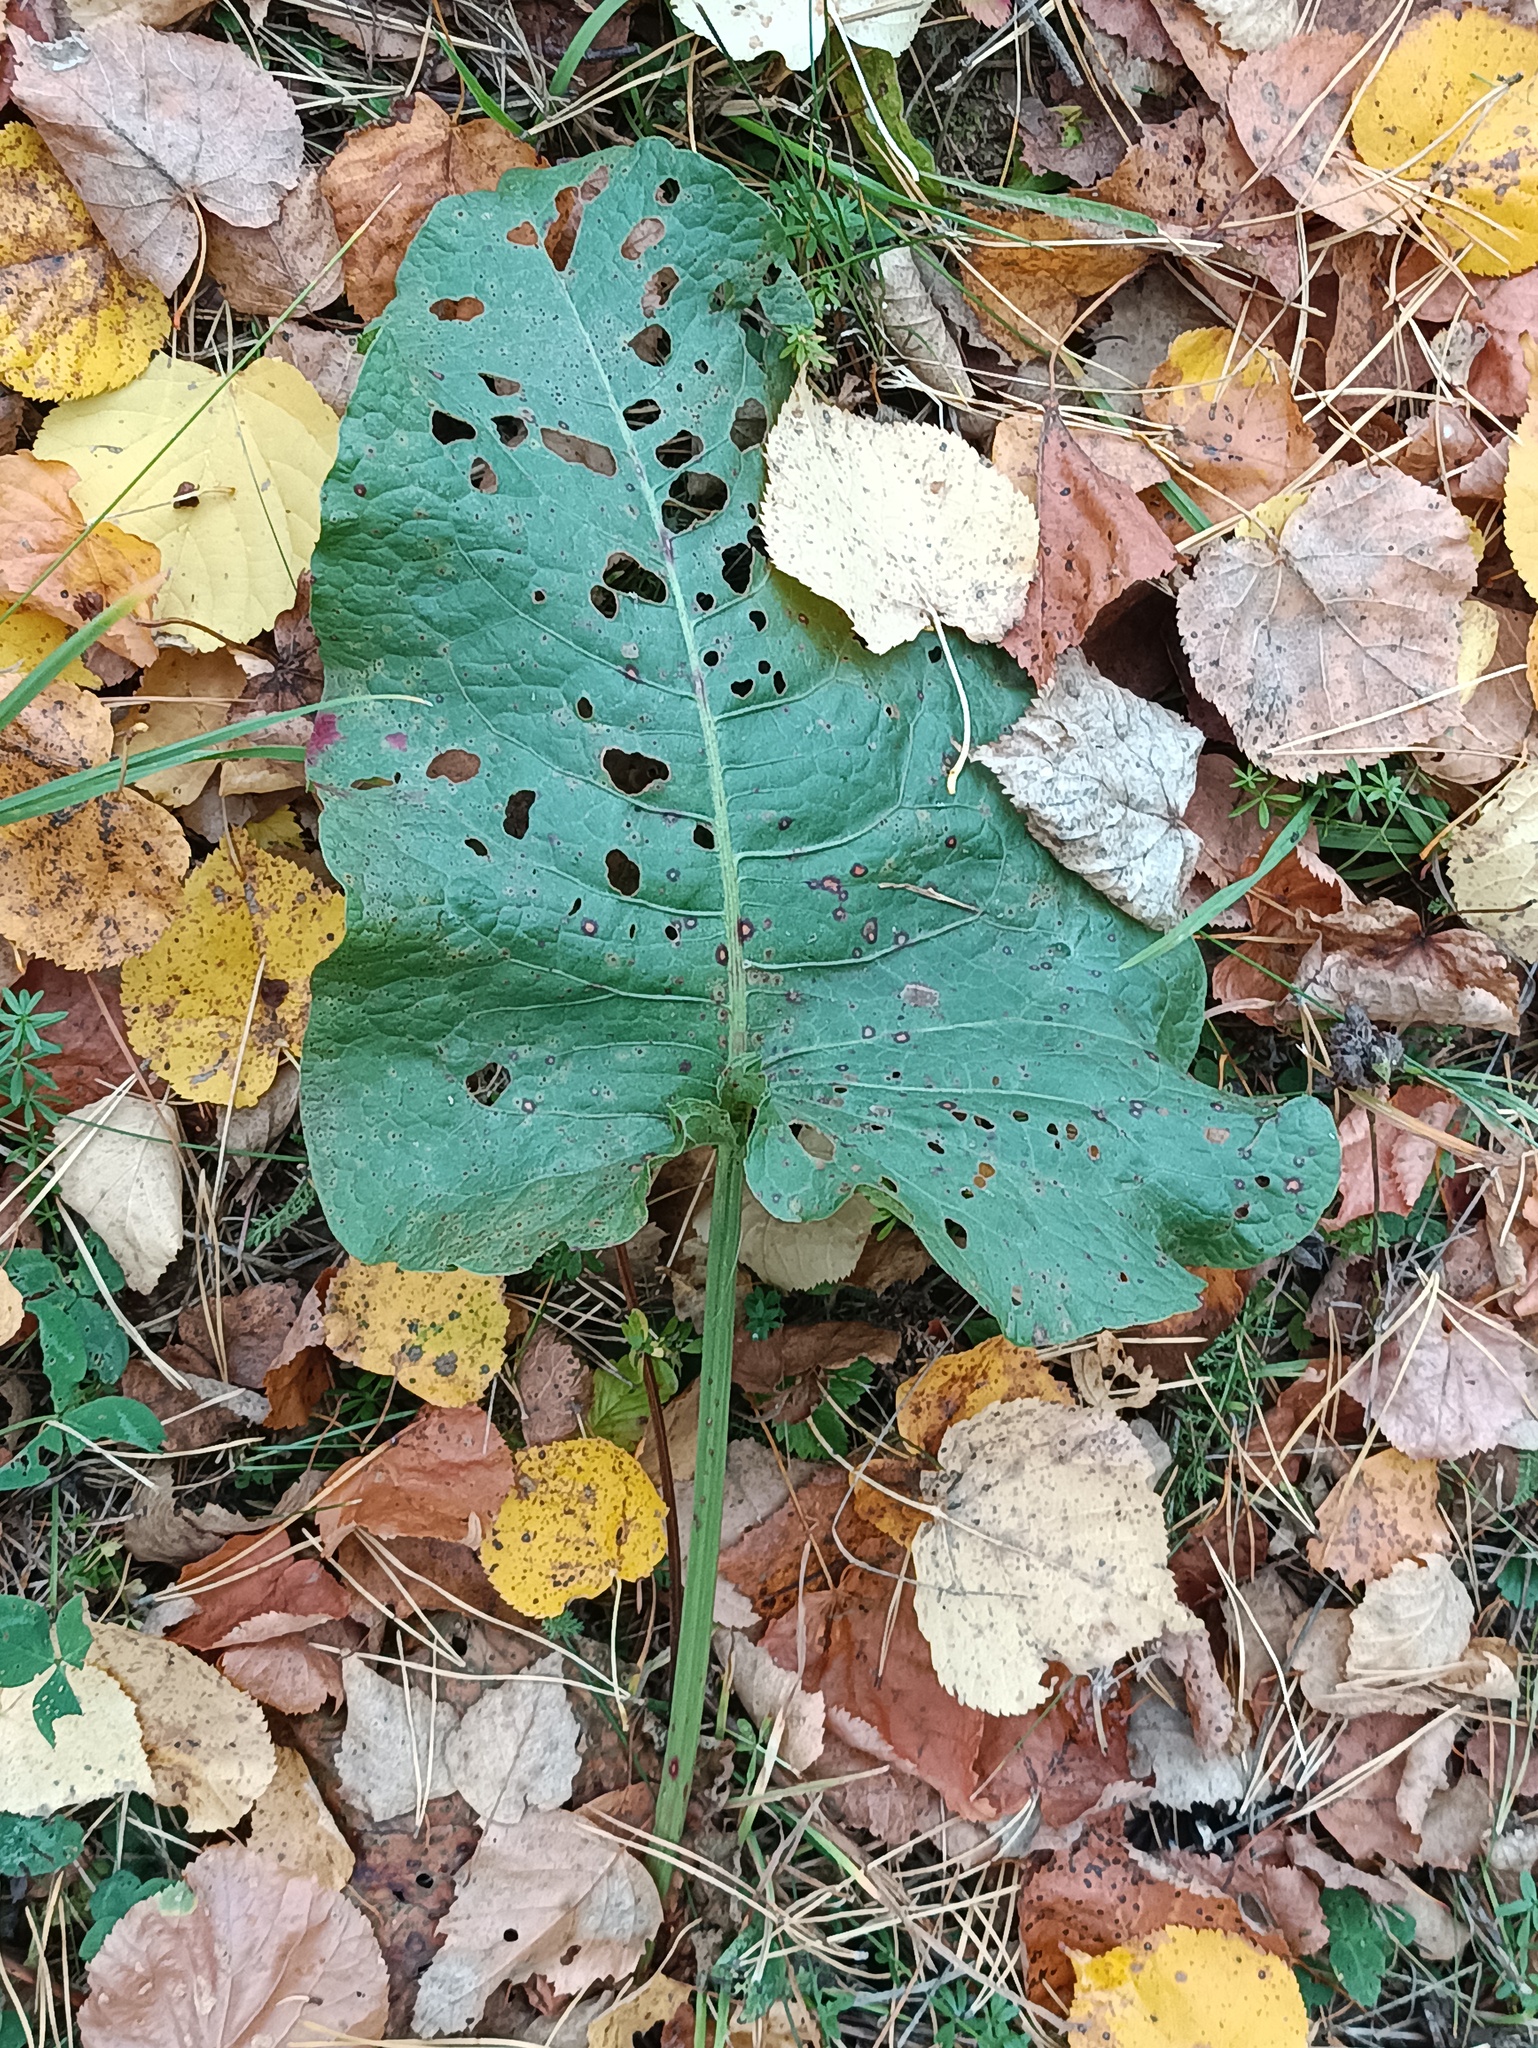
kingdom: Plantae
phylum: Tracheophyta
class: Magnoliopsida
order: Caryophyllales
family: Polygonaceae
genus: Rumex
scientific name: Rumex confertus
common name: Russian dock
